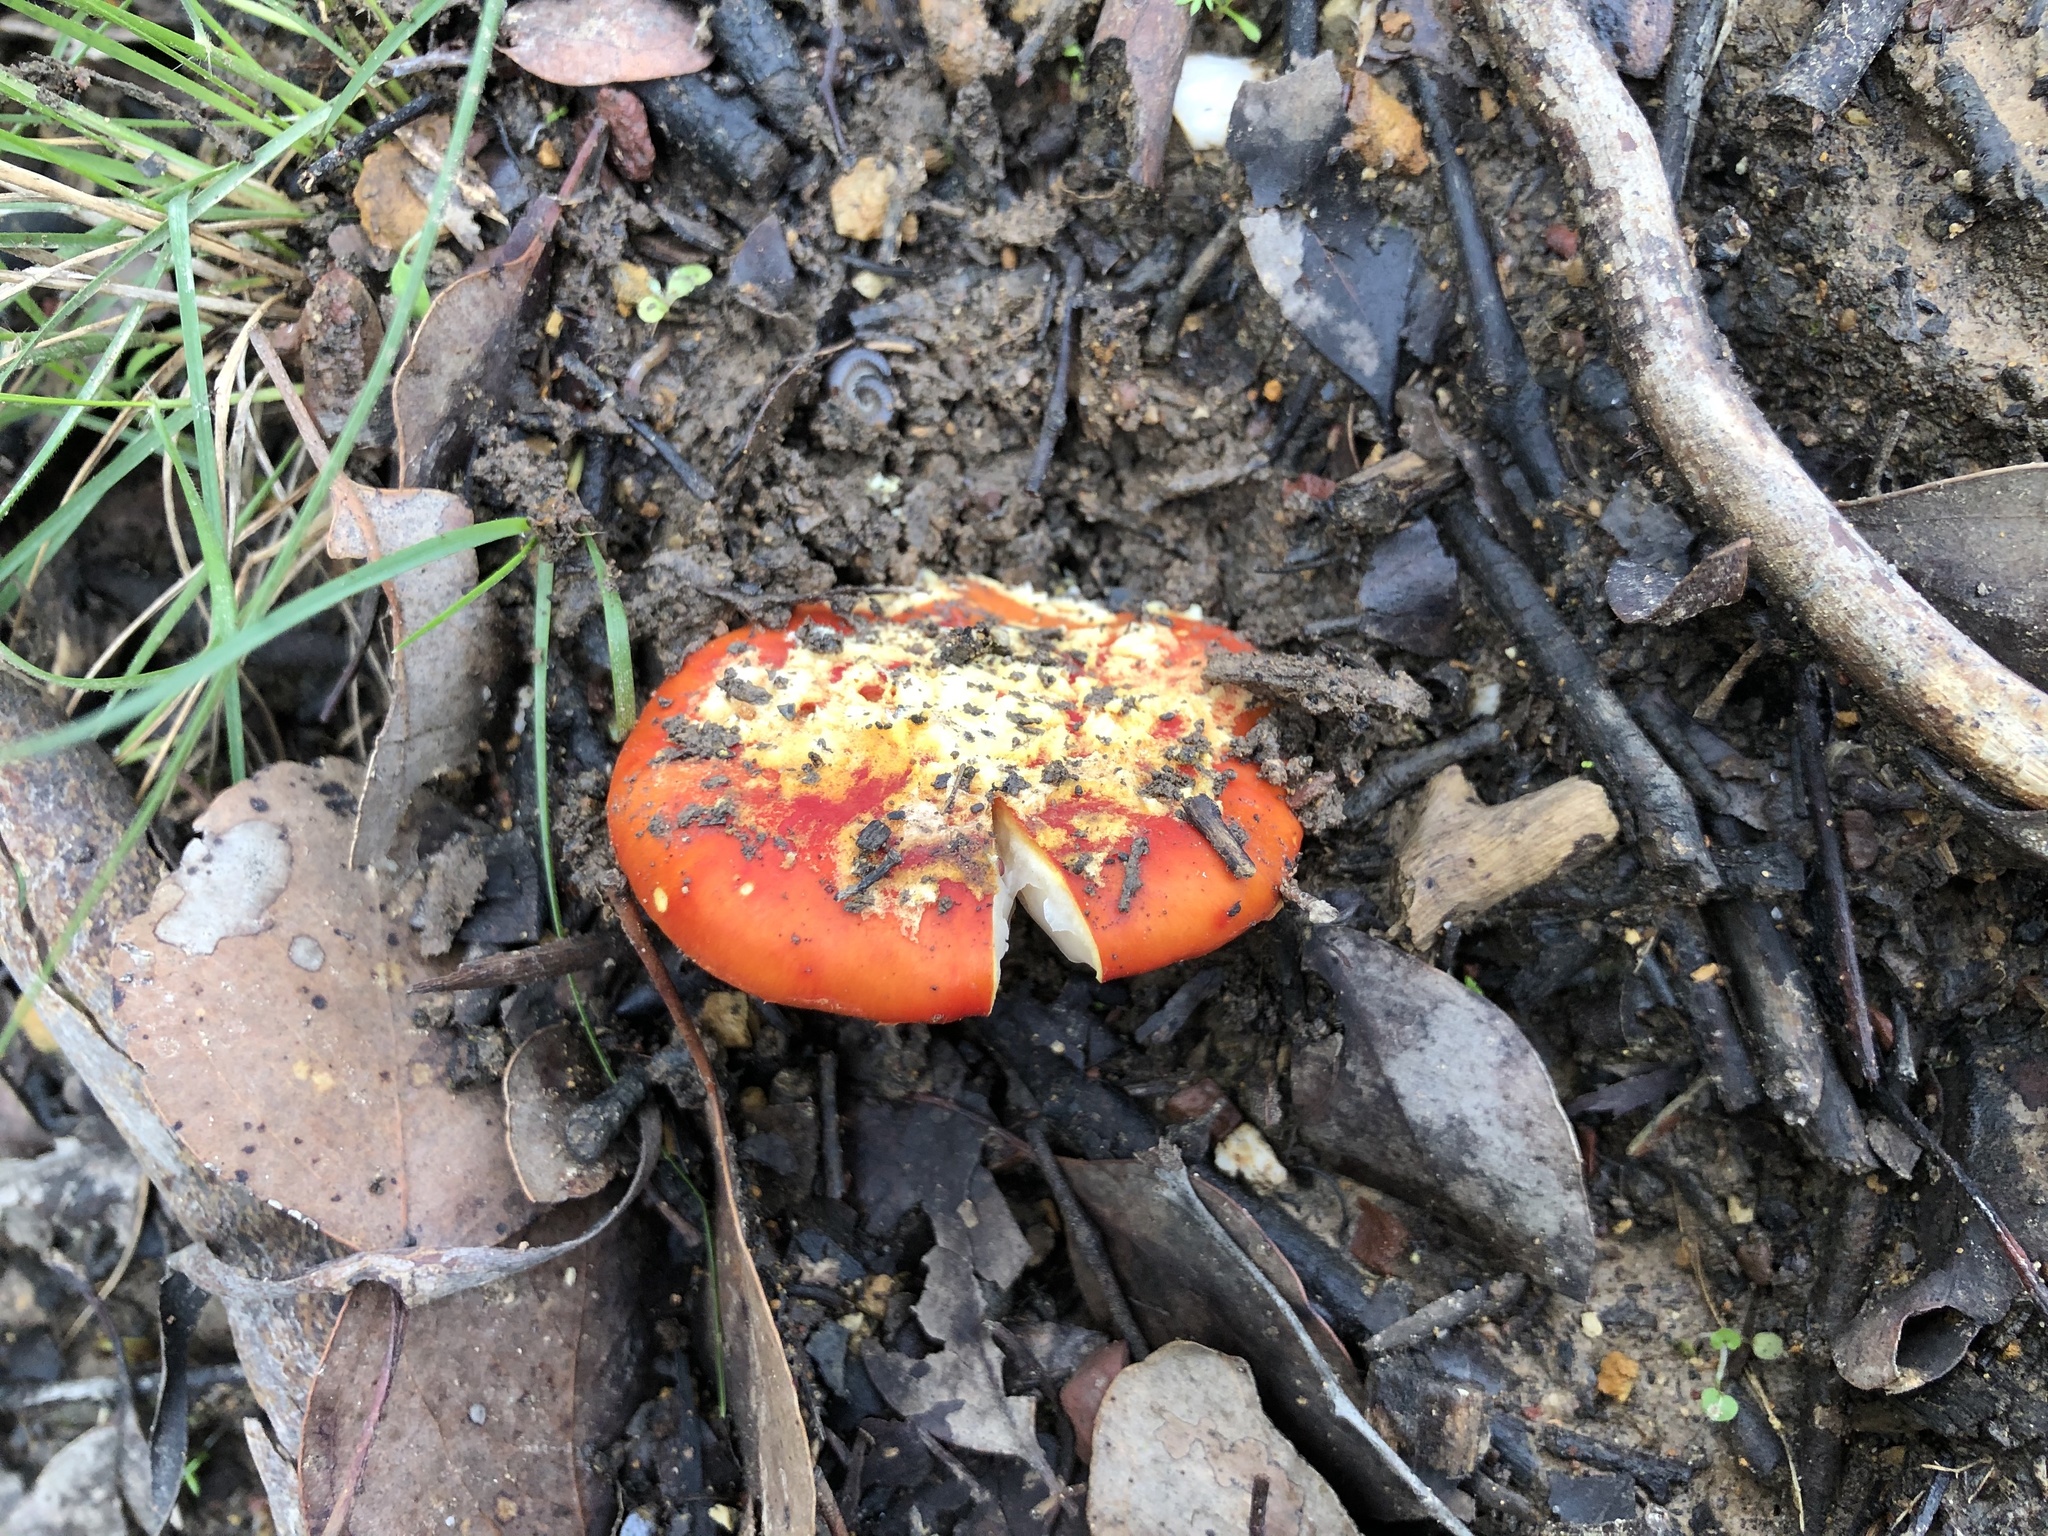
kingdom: Fungi
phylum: Basidiomycota
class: Agaricomycetes
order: Agaricales
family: Amanitaceae
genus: Amanita
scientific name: Amanita xanthocephala
